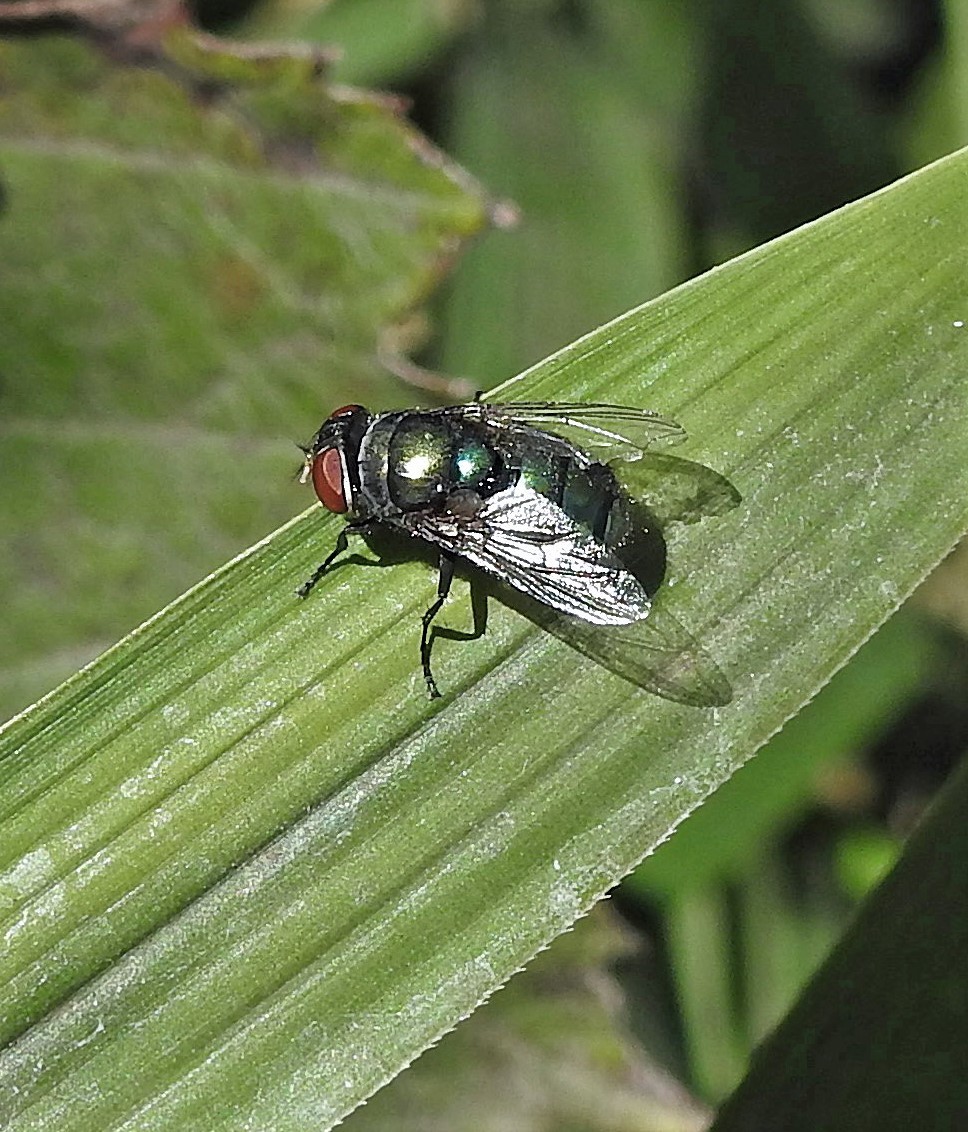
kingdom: Animalia
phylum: Arthropoda
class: Insecta
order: Diptera
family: Calliphoridae
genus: Chrysomya
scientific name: Chrysomya megacephala
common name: Blow fly
